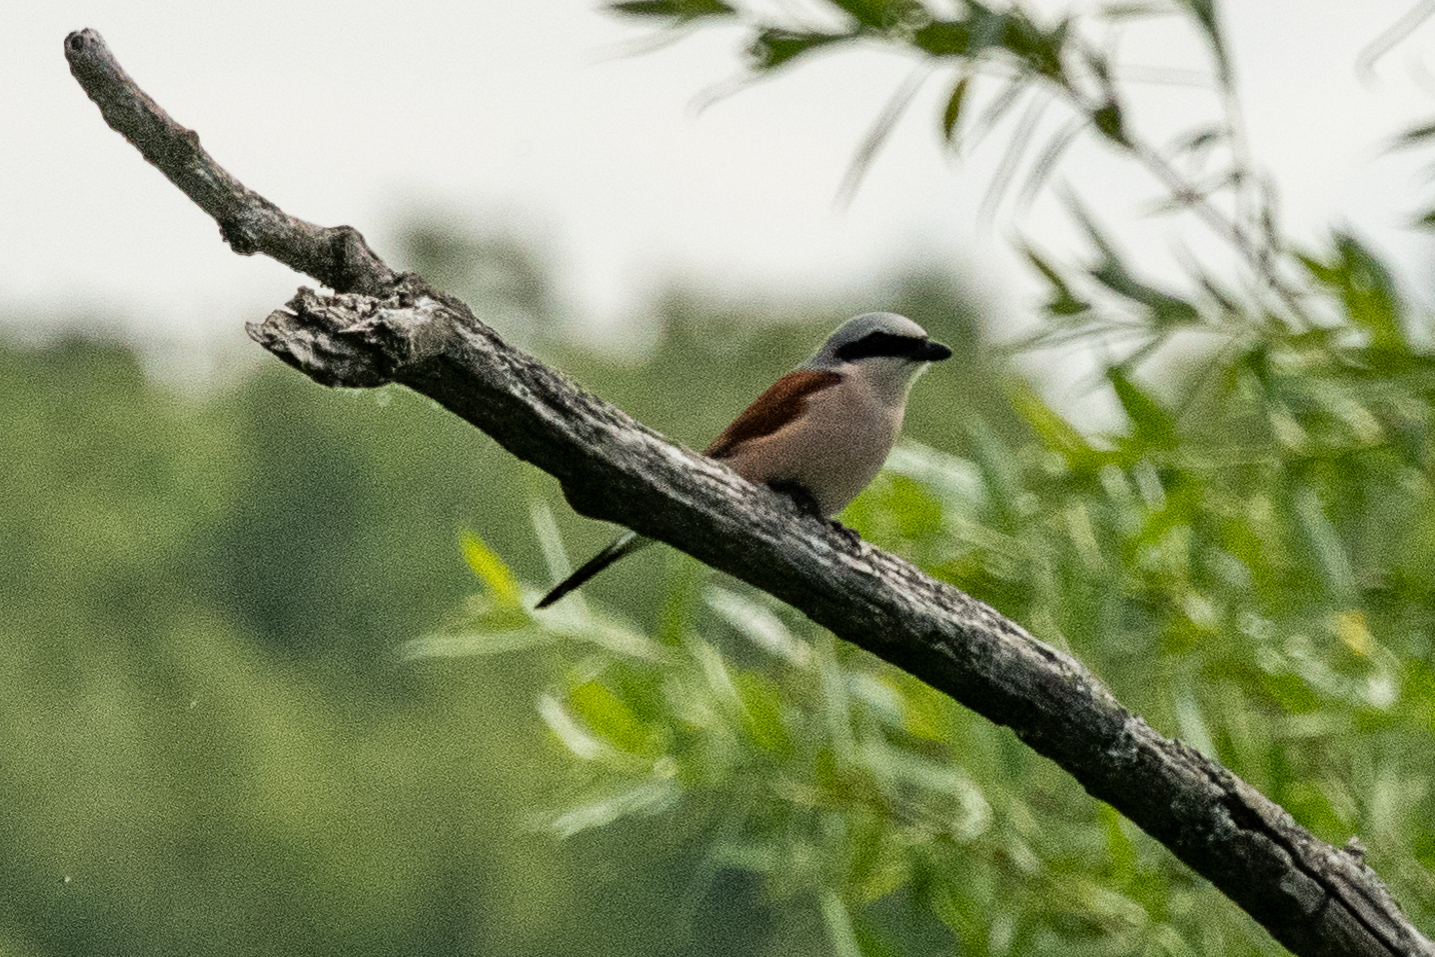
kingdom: Animalia
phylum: Chordata
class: Aves
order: Passeriformes
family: Laniidae
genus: Lanius
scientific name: Lanius collurio
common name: Red-backed shrike
